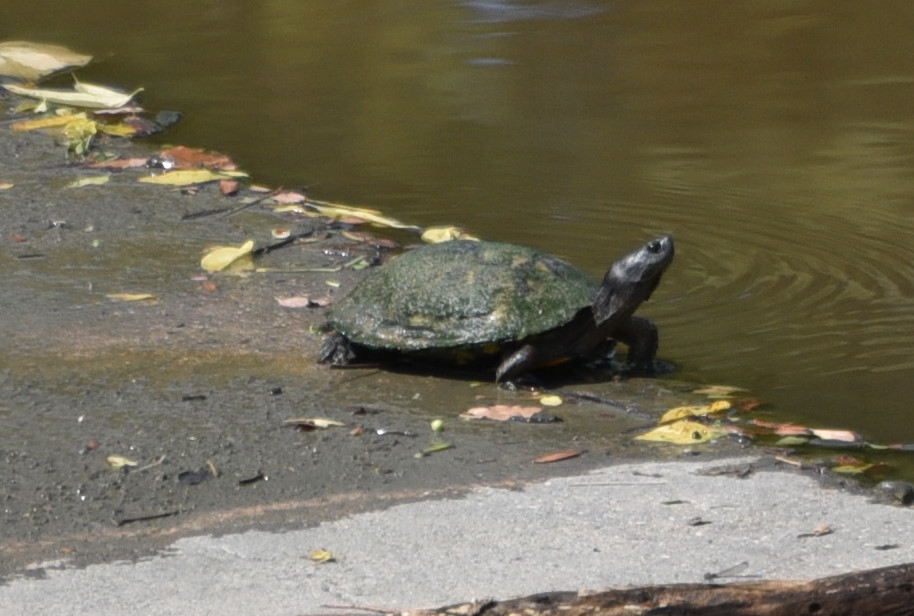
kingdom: Animalia
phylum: Chordata
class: Testudines
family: Emydidae
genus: Trachemys
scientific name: Trachemys scripta
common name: Slider
